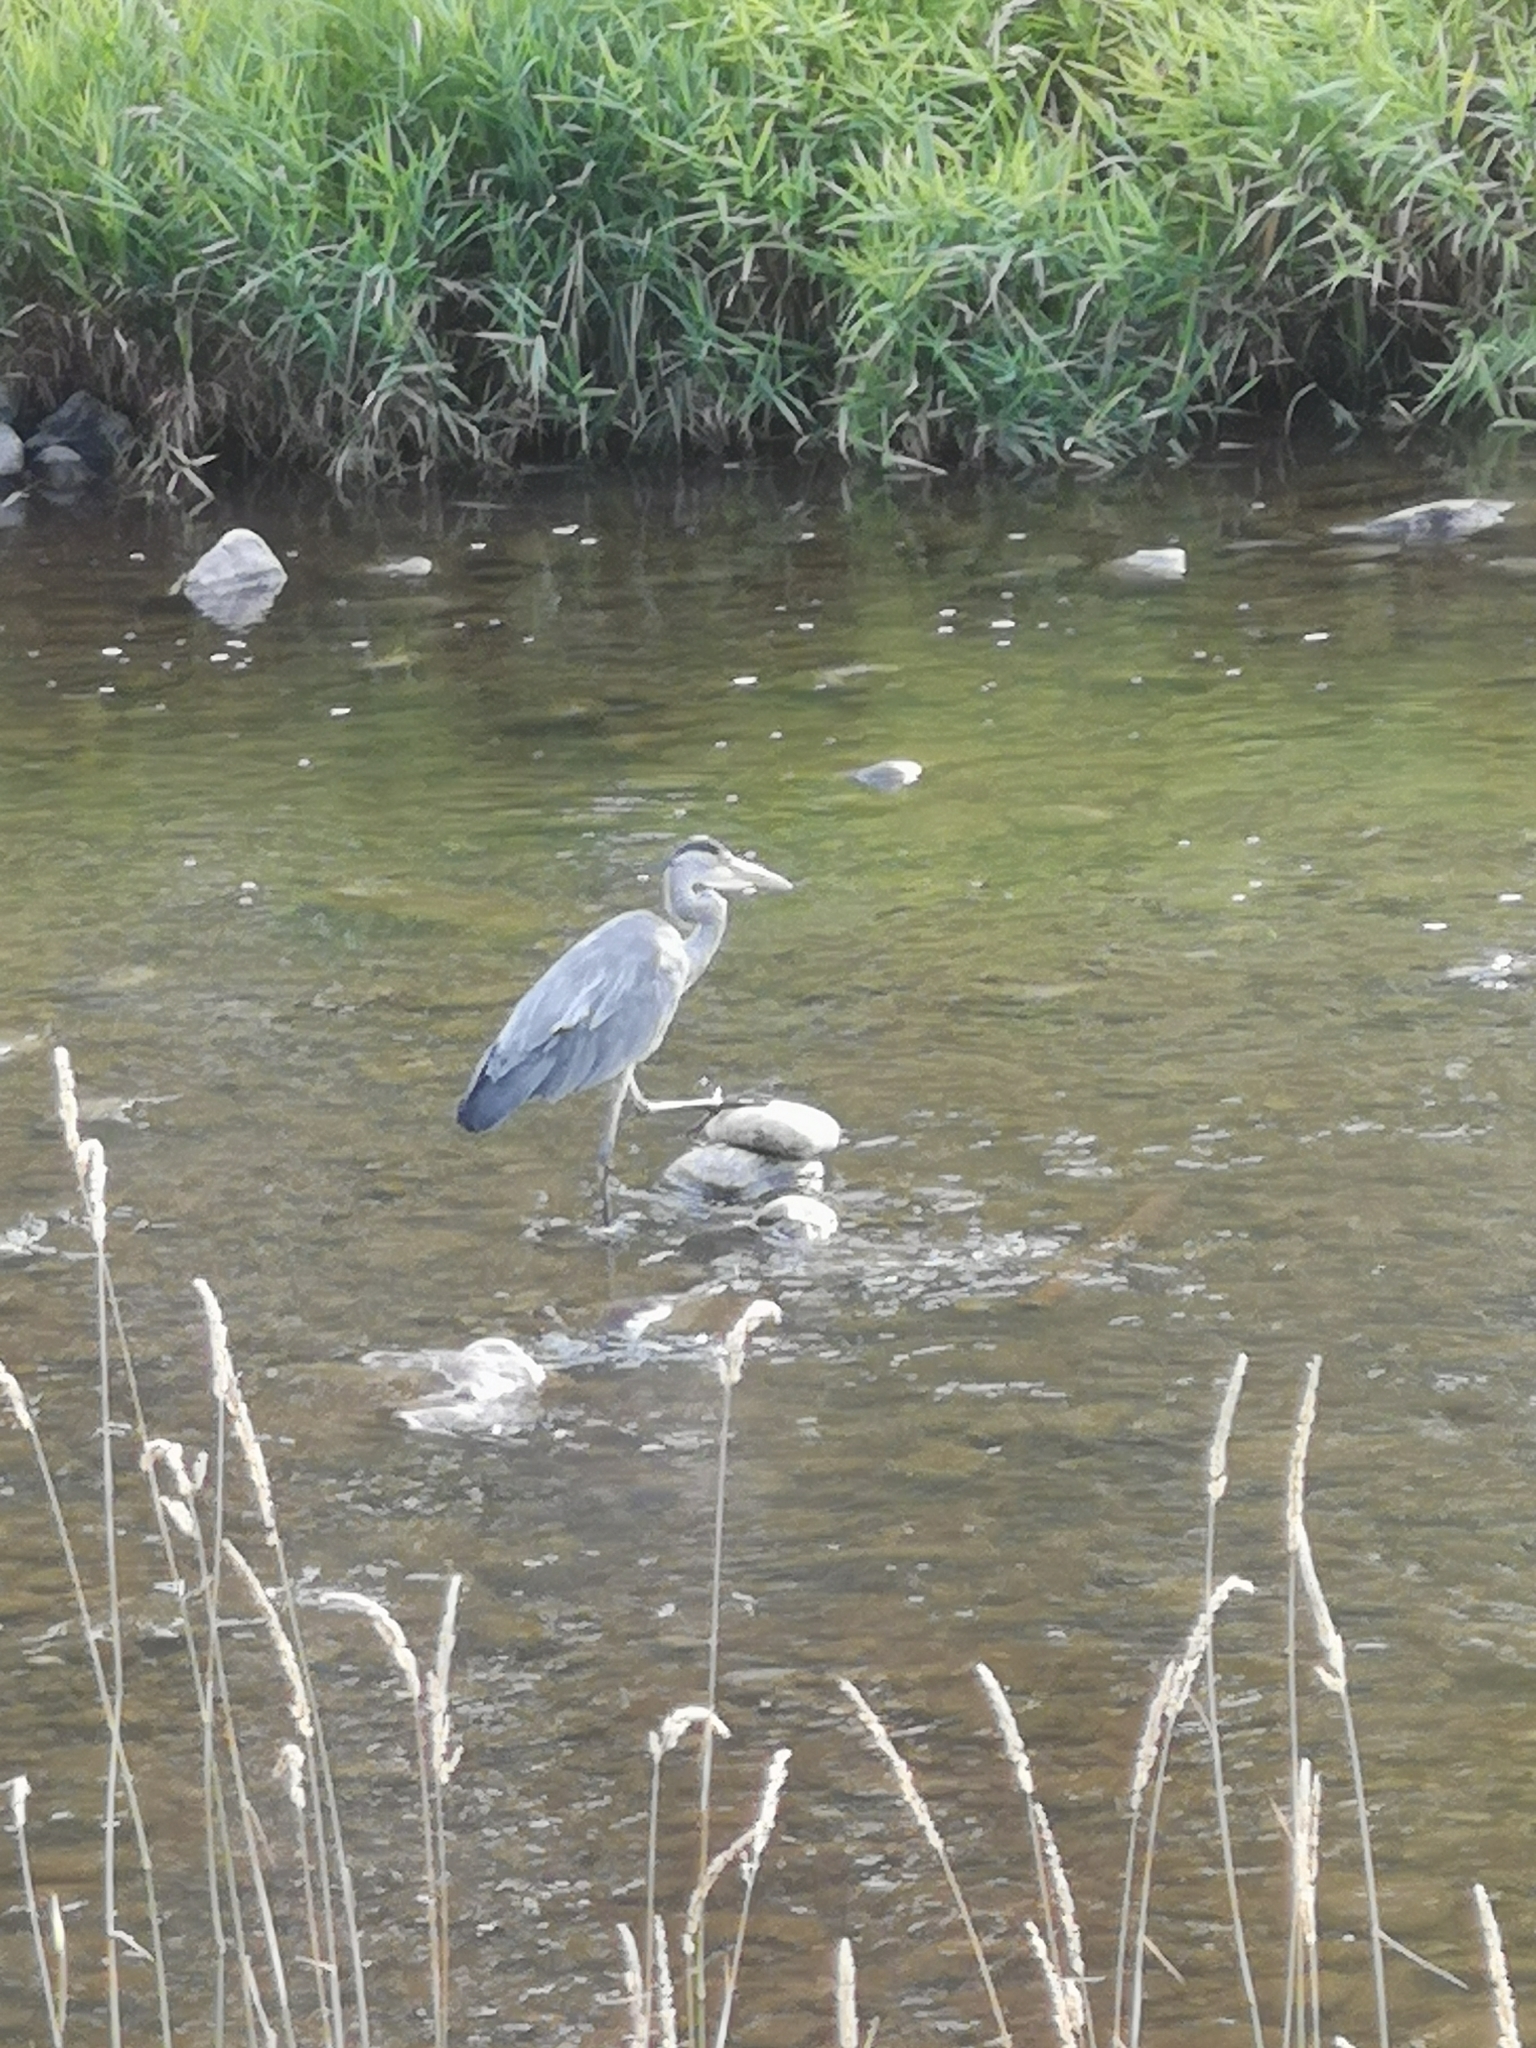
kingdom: Animalia
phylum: Chordata
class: Aves
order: Pelecaniformes
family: Ardeidae
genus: Ardea
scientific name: Ardea cinerea
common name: Grey heron
